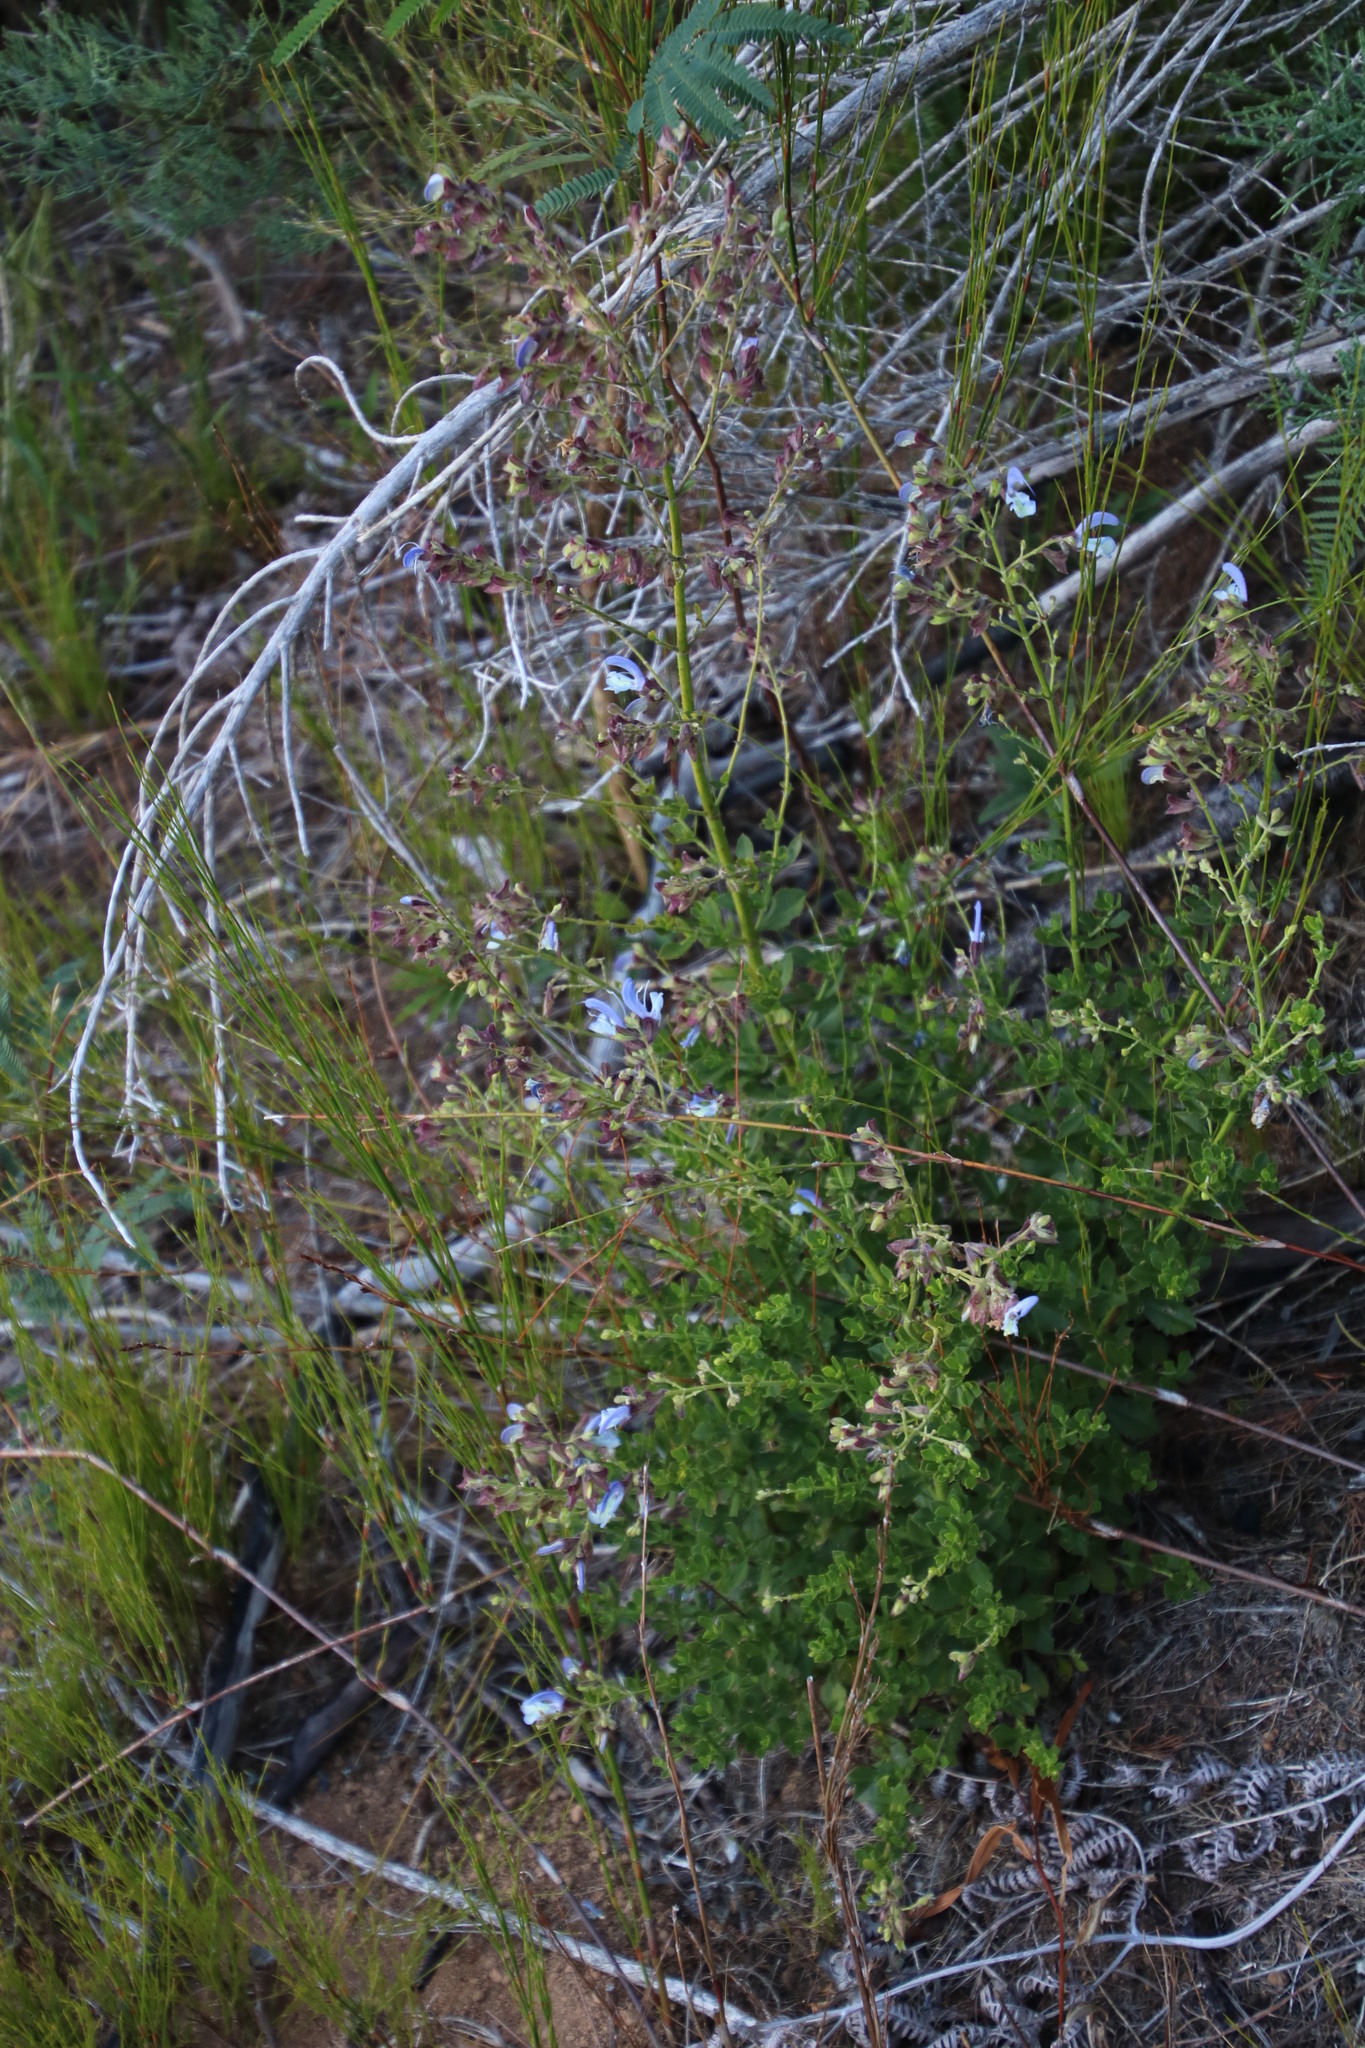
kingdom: Plantae
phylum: Tracheophyta
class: Magnoliopsida
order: Lamiales
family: Lamiaceae
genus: Salvia
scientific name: Salvia chamelaeagnea
